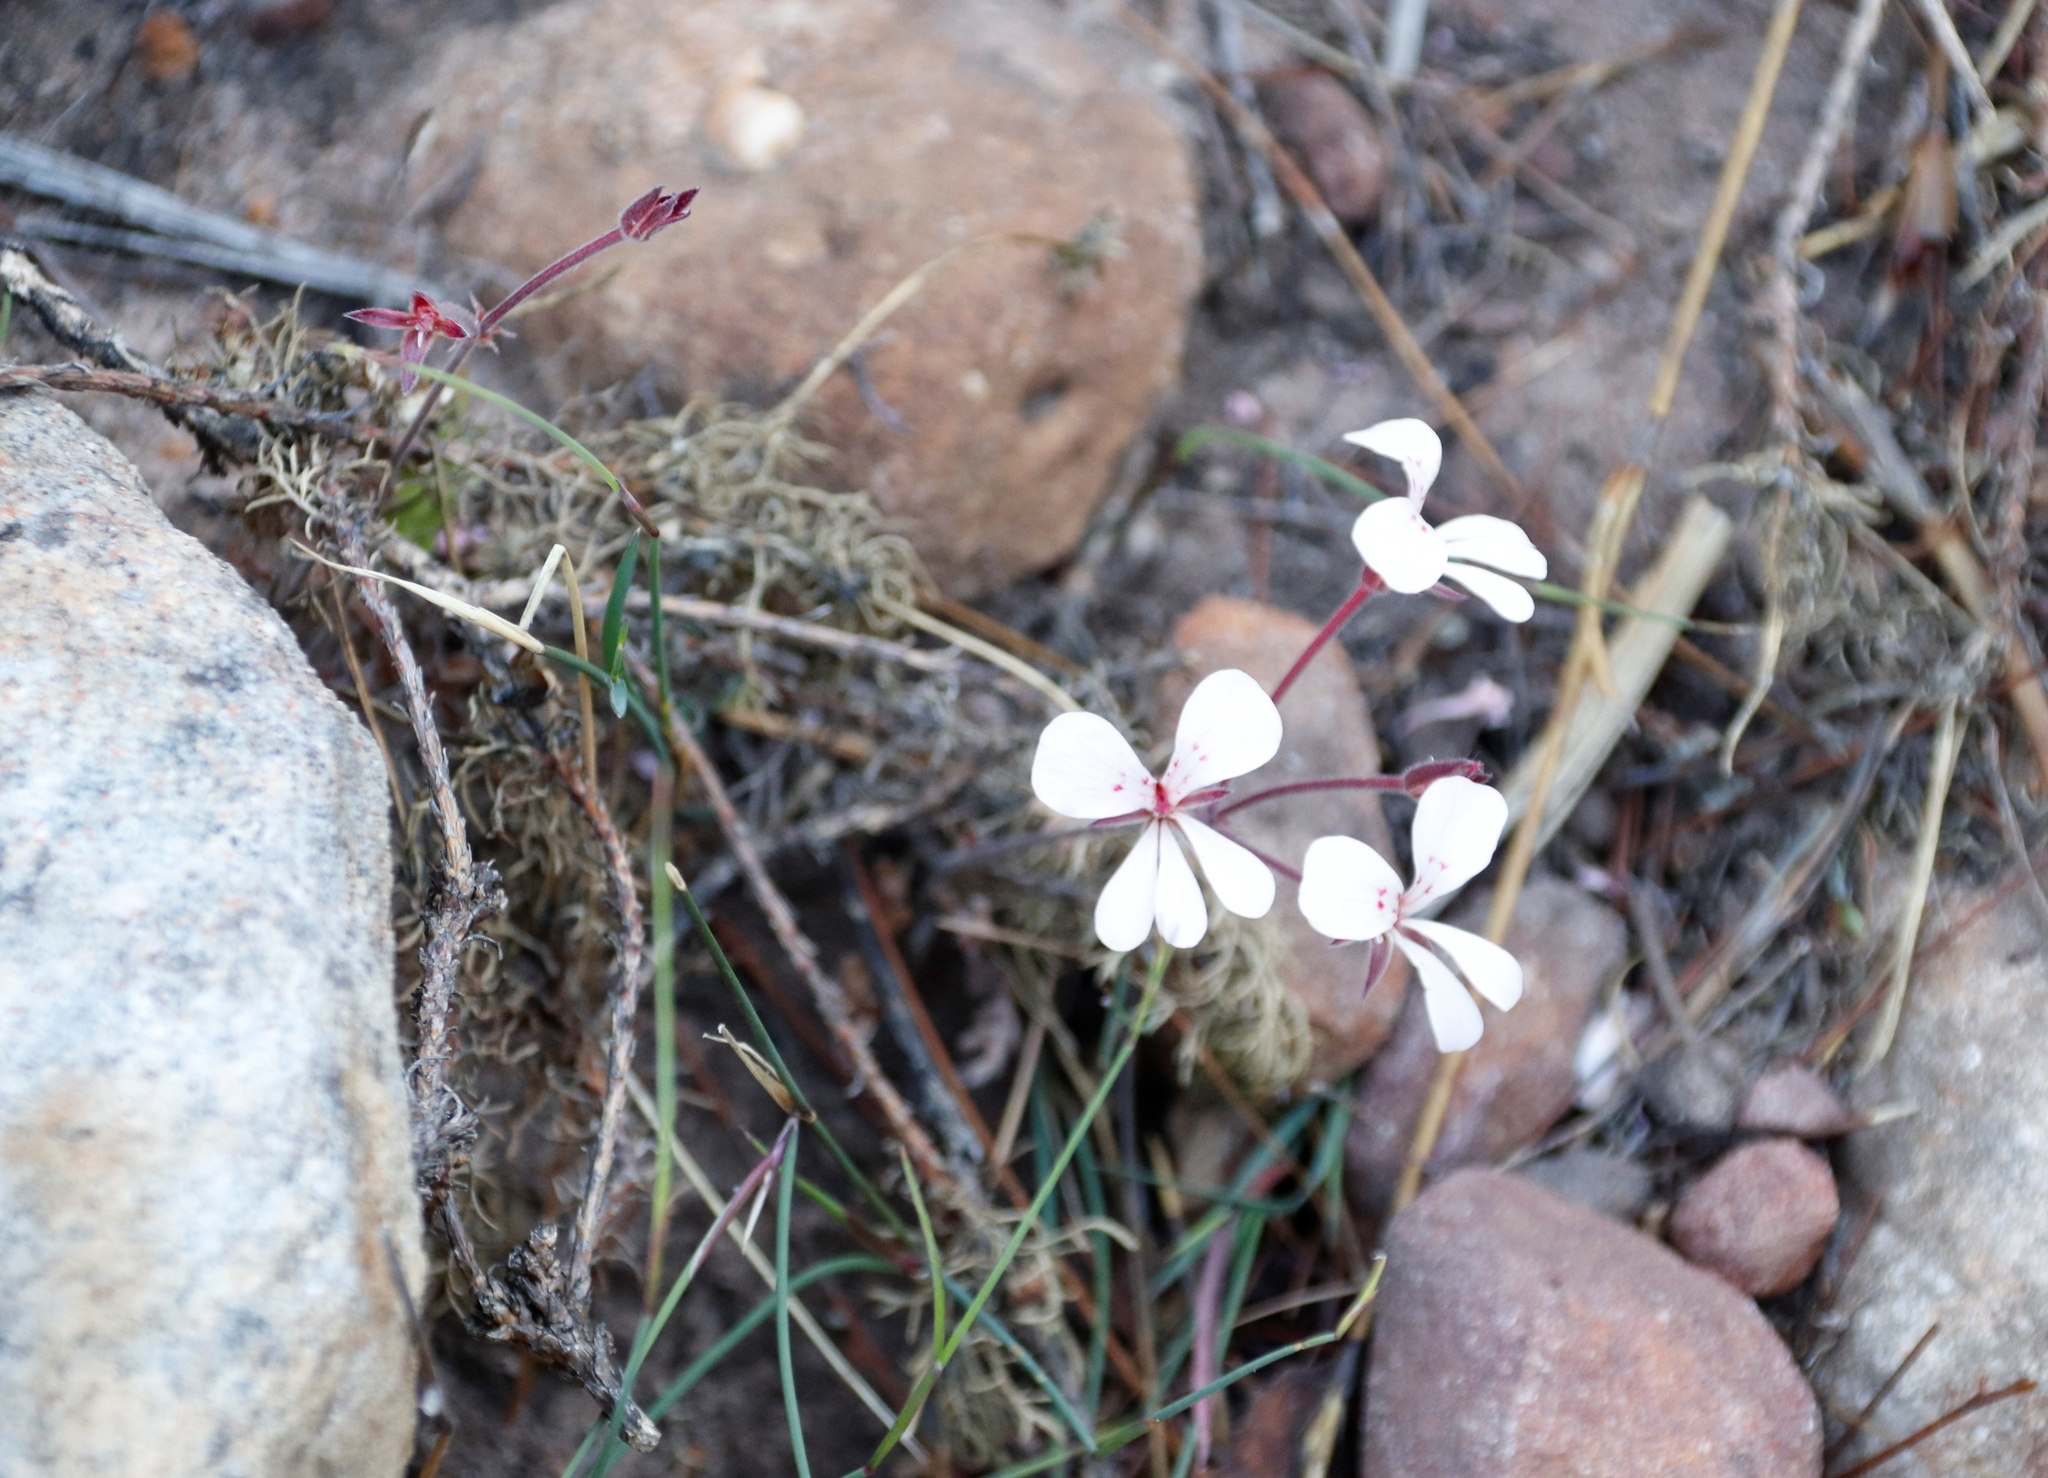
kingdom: Plantae
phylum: Tracheophyta
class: Magnoliopsida
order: Geraniales
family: Geraniaceae
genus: Pelargonium
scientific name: Pelargonium pinnatum
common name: Pinnated pelargonium
